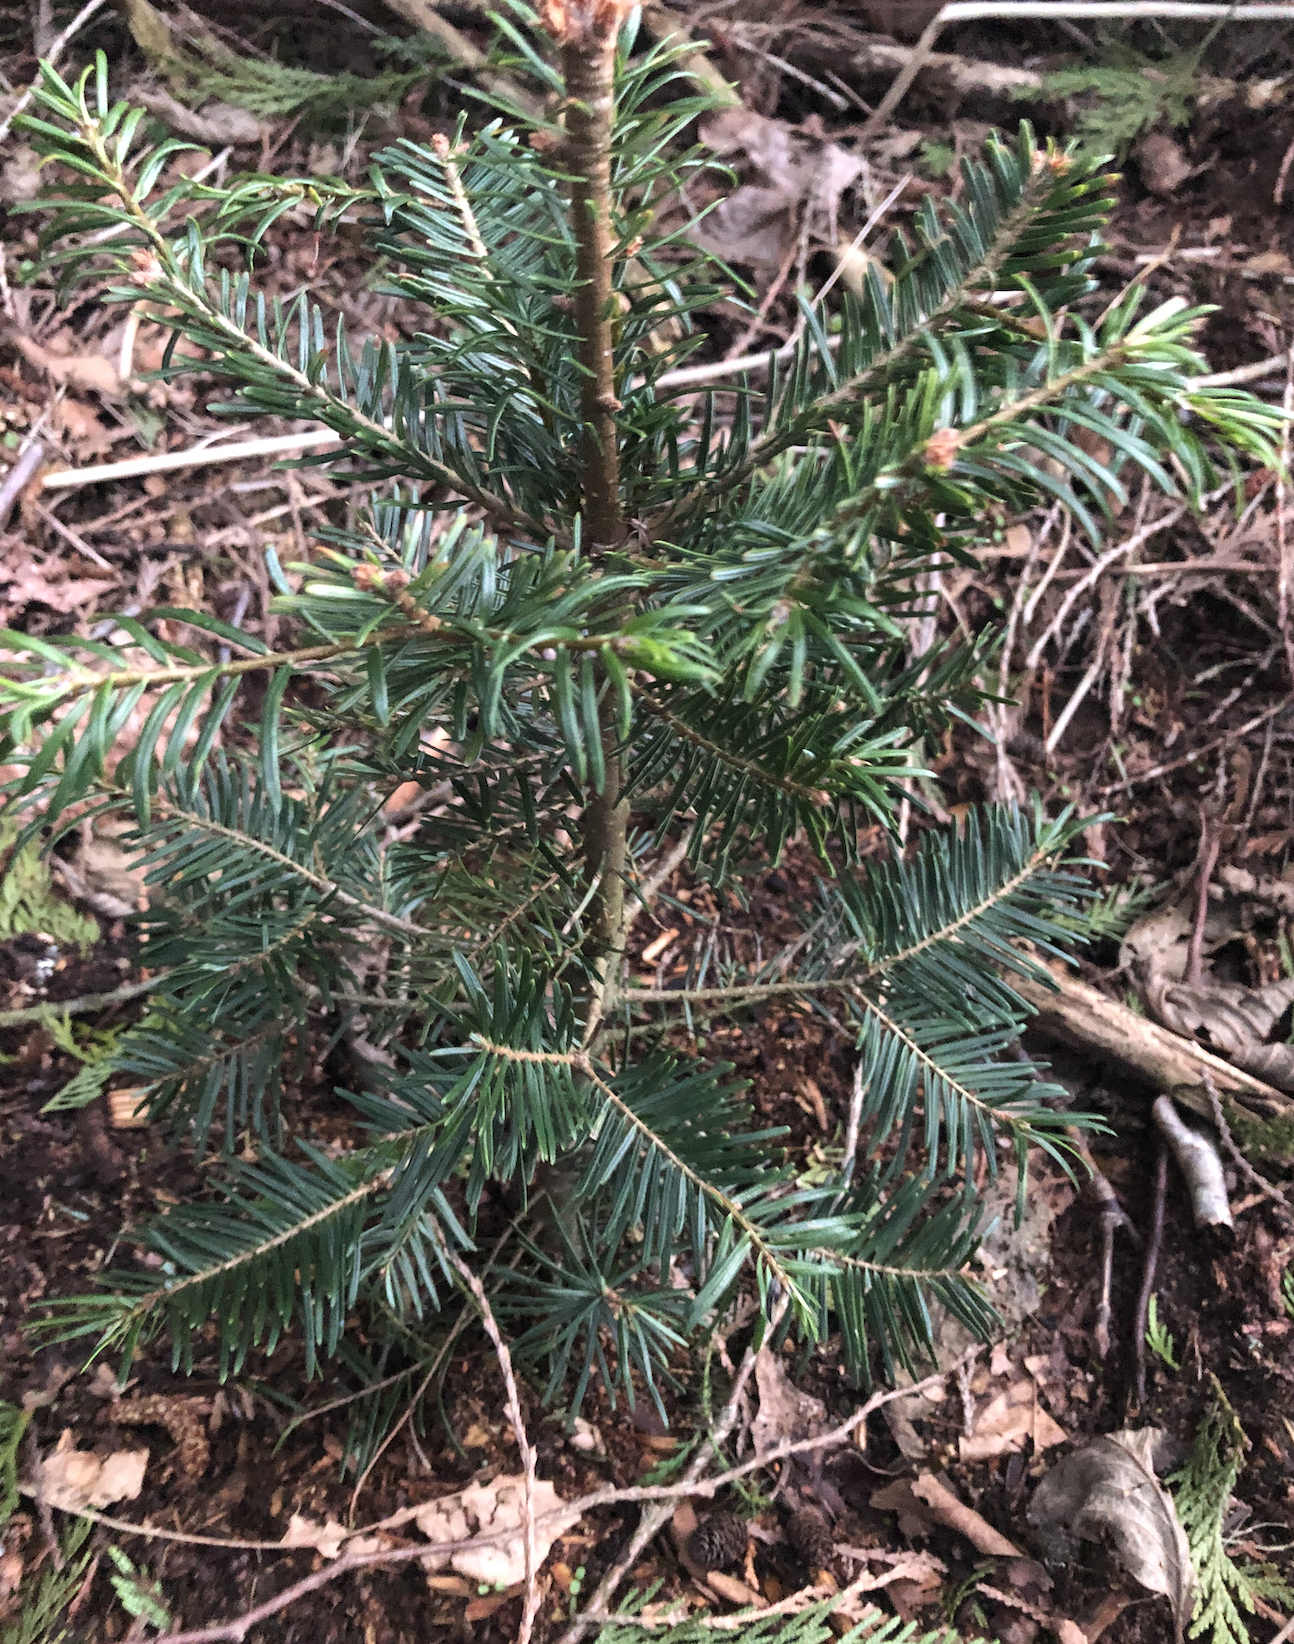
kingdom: Plantae
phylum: Tracheophyta
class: Pinopsida
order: Pinales
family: Pinaceae
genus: Abies
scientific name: Abies grandis
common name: Giant fir
